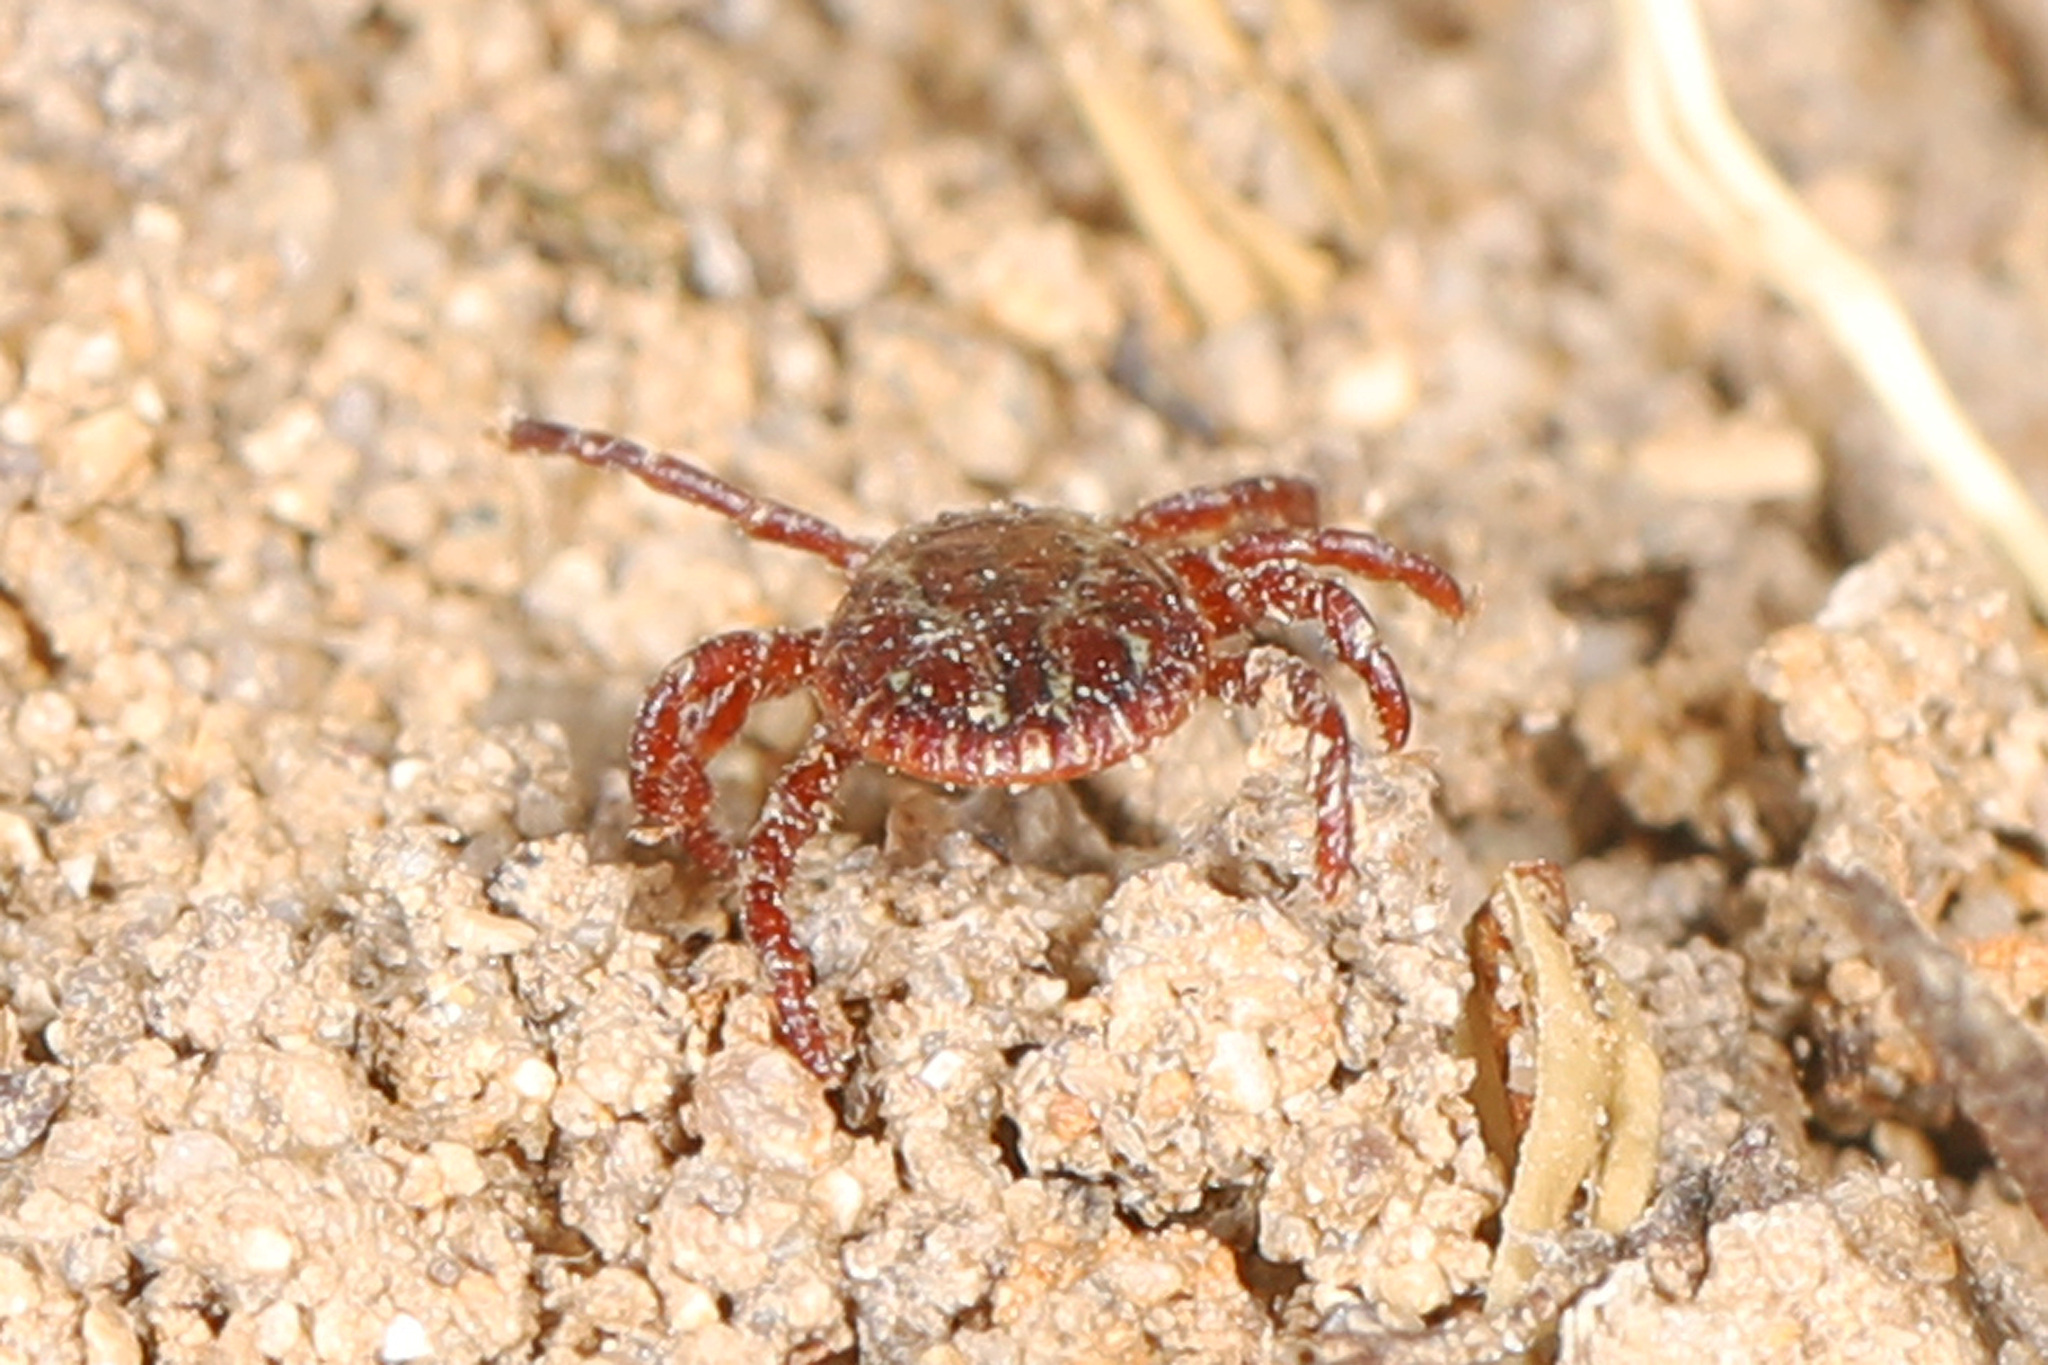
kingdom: Animalia
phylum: Arthropoda
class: Arachnida
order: Ixodida
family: Ixodidae
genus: Dermacentor
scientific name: Dermacentor variabilis
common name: American dog tick
